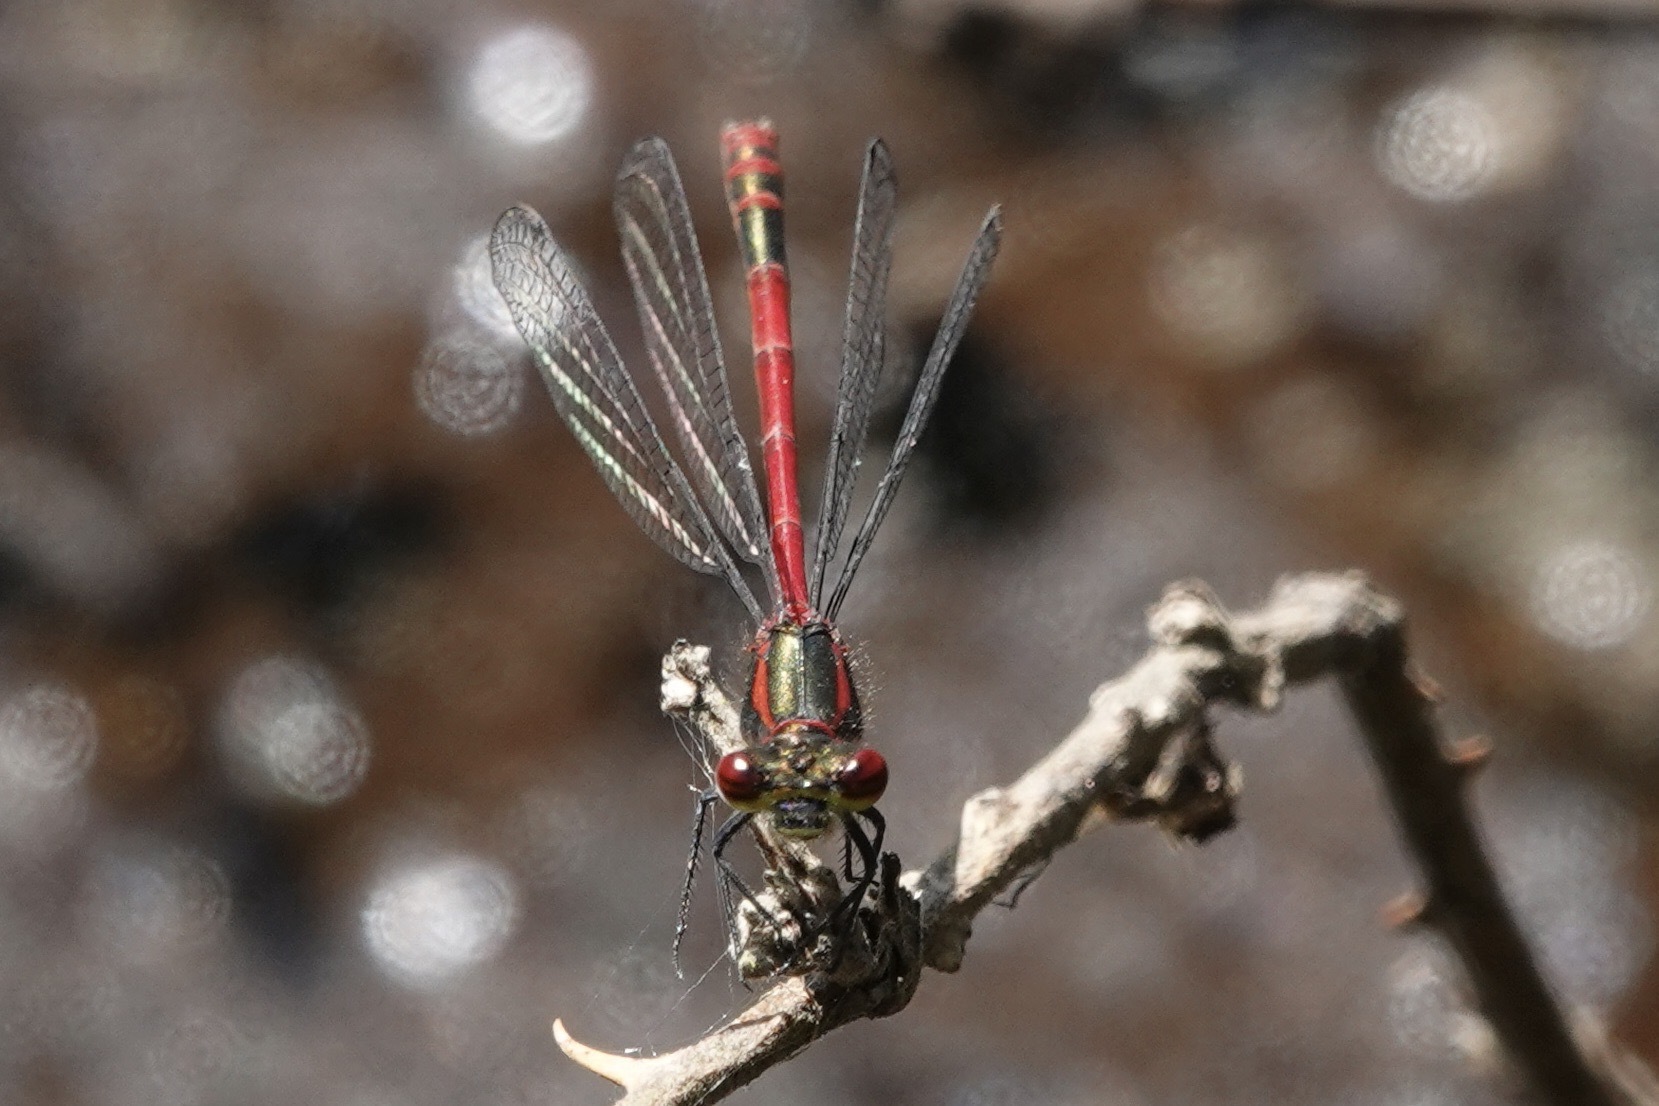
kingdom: Animalia
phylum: Arthropoda
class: Insecta
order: Odonata
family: Coenagrionidae
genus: Pyrrhosoma
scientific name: Pyrrhosoma nymphula
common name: Large red damsel
